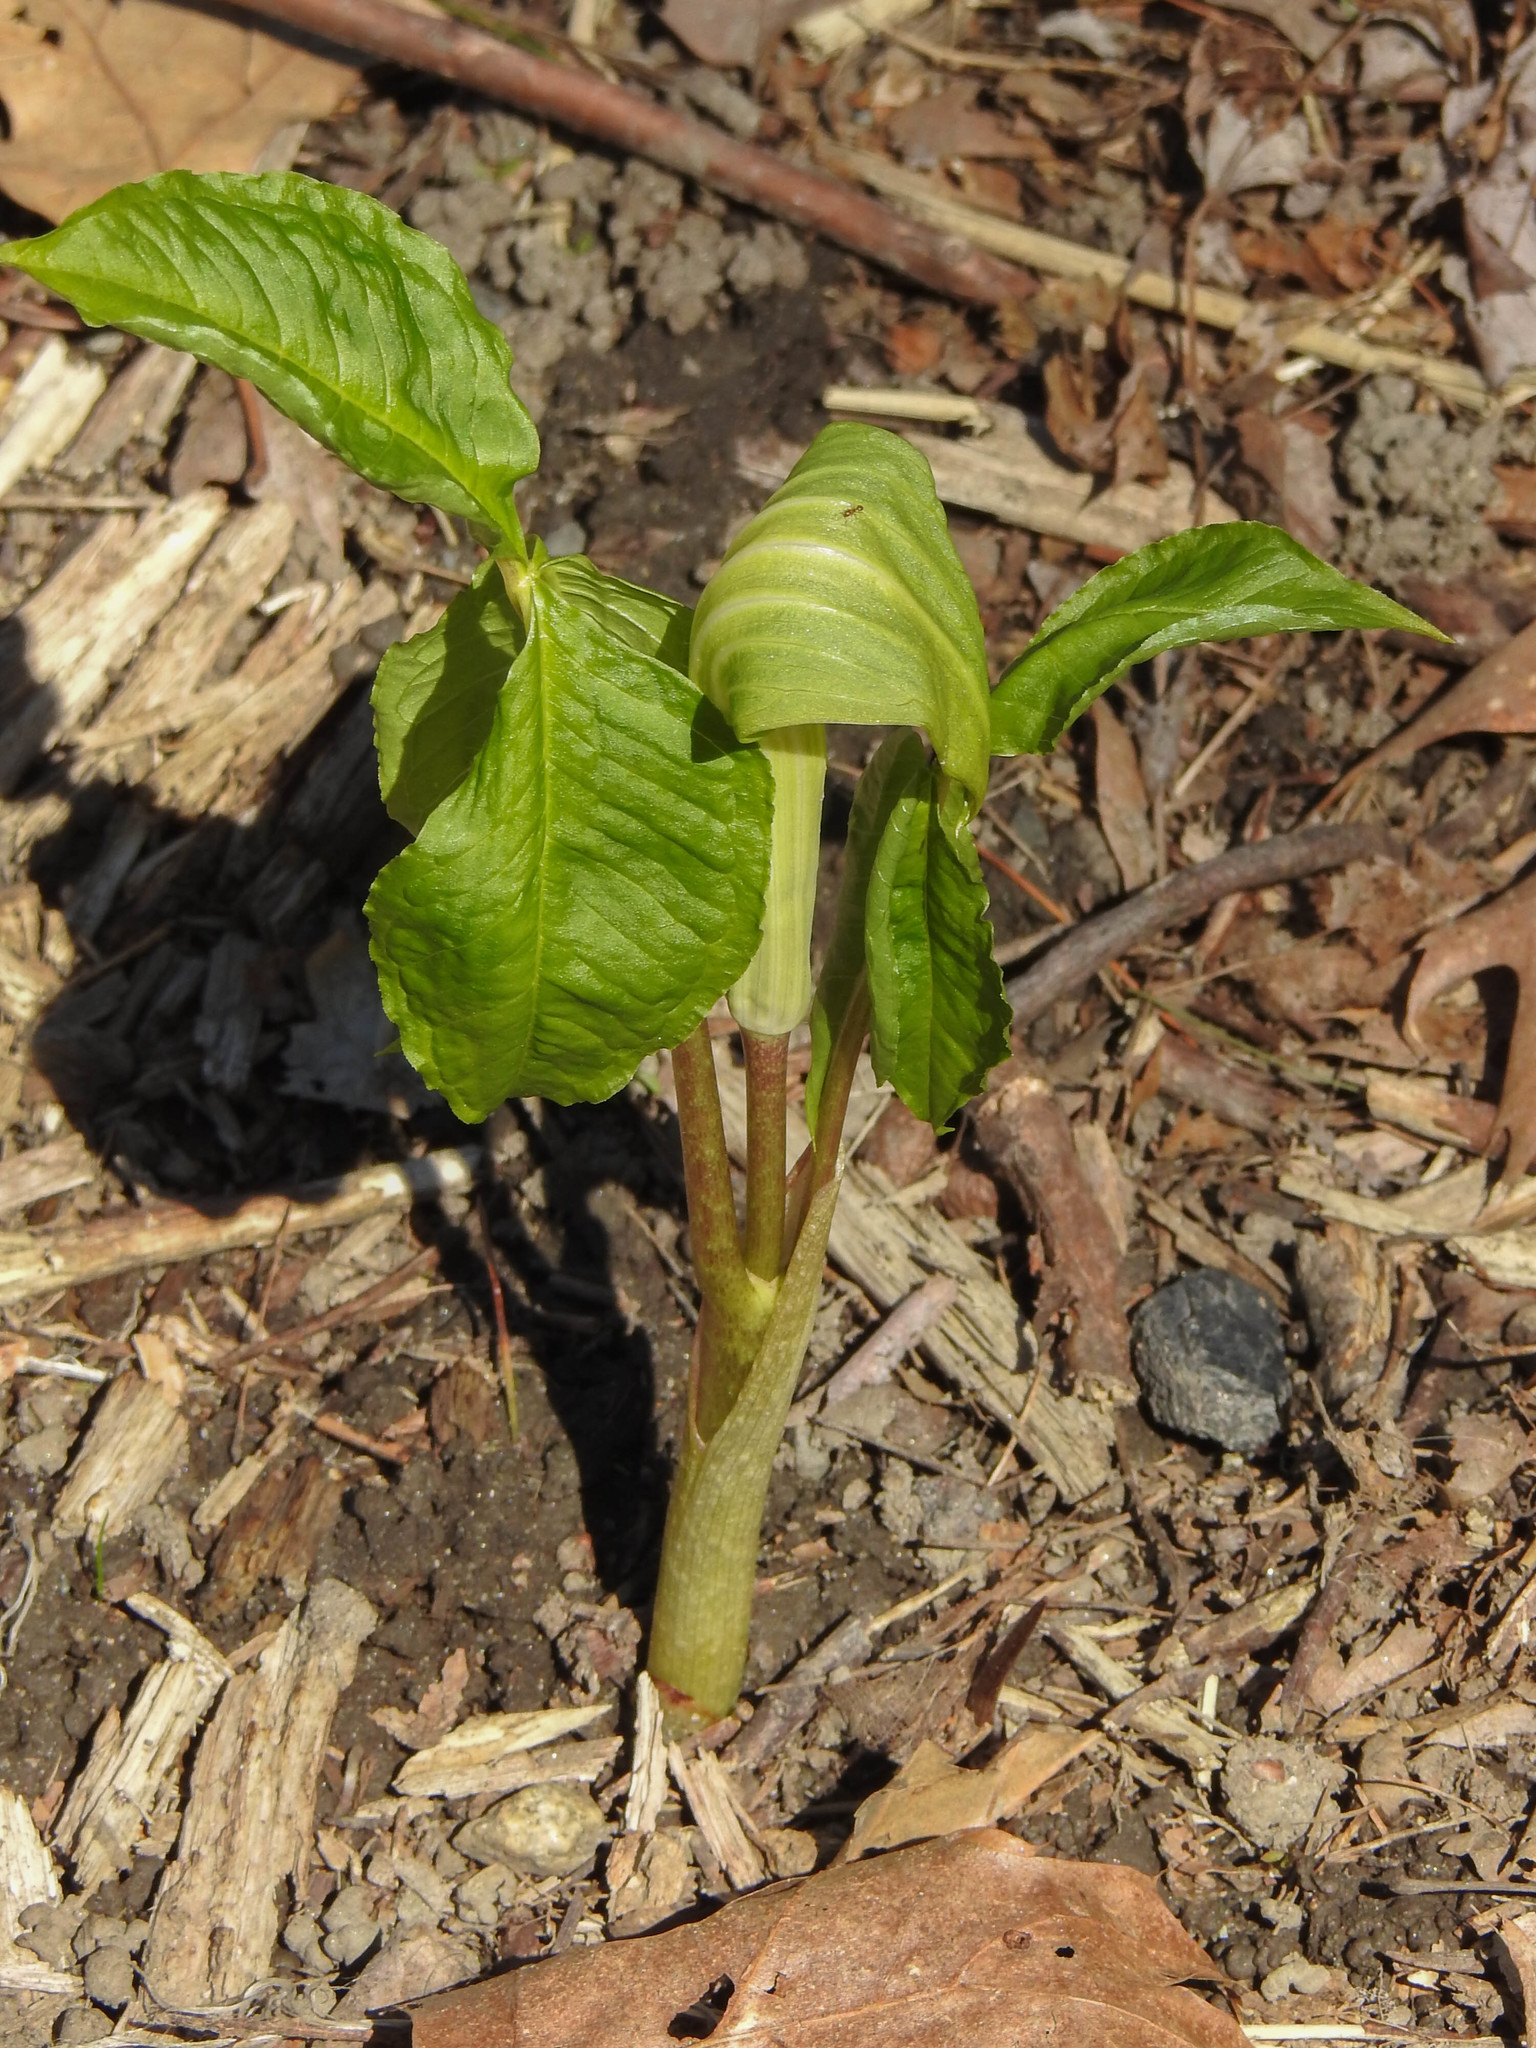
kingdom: Plantae
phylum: Tracheophyta
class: Liliopsida
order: Alismatales
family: Araceae
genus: Arisaema
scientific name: Arisaema triphyllum
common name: Jack-in-the-pulpit
